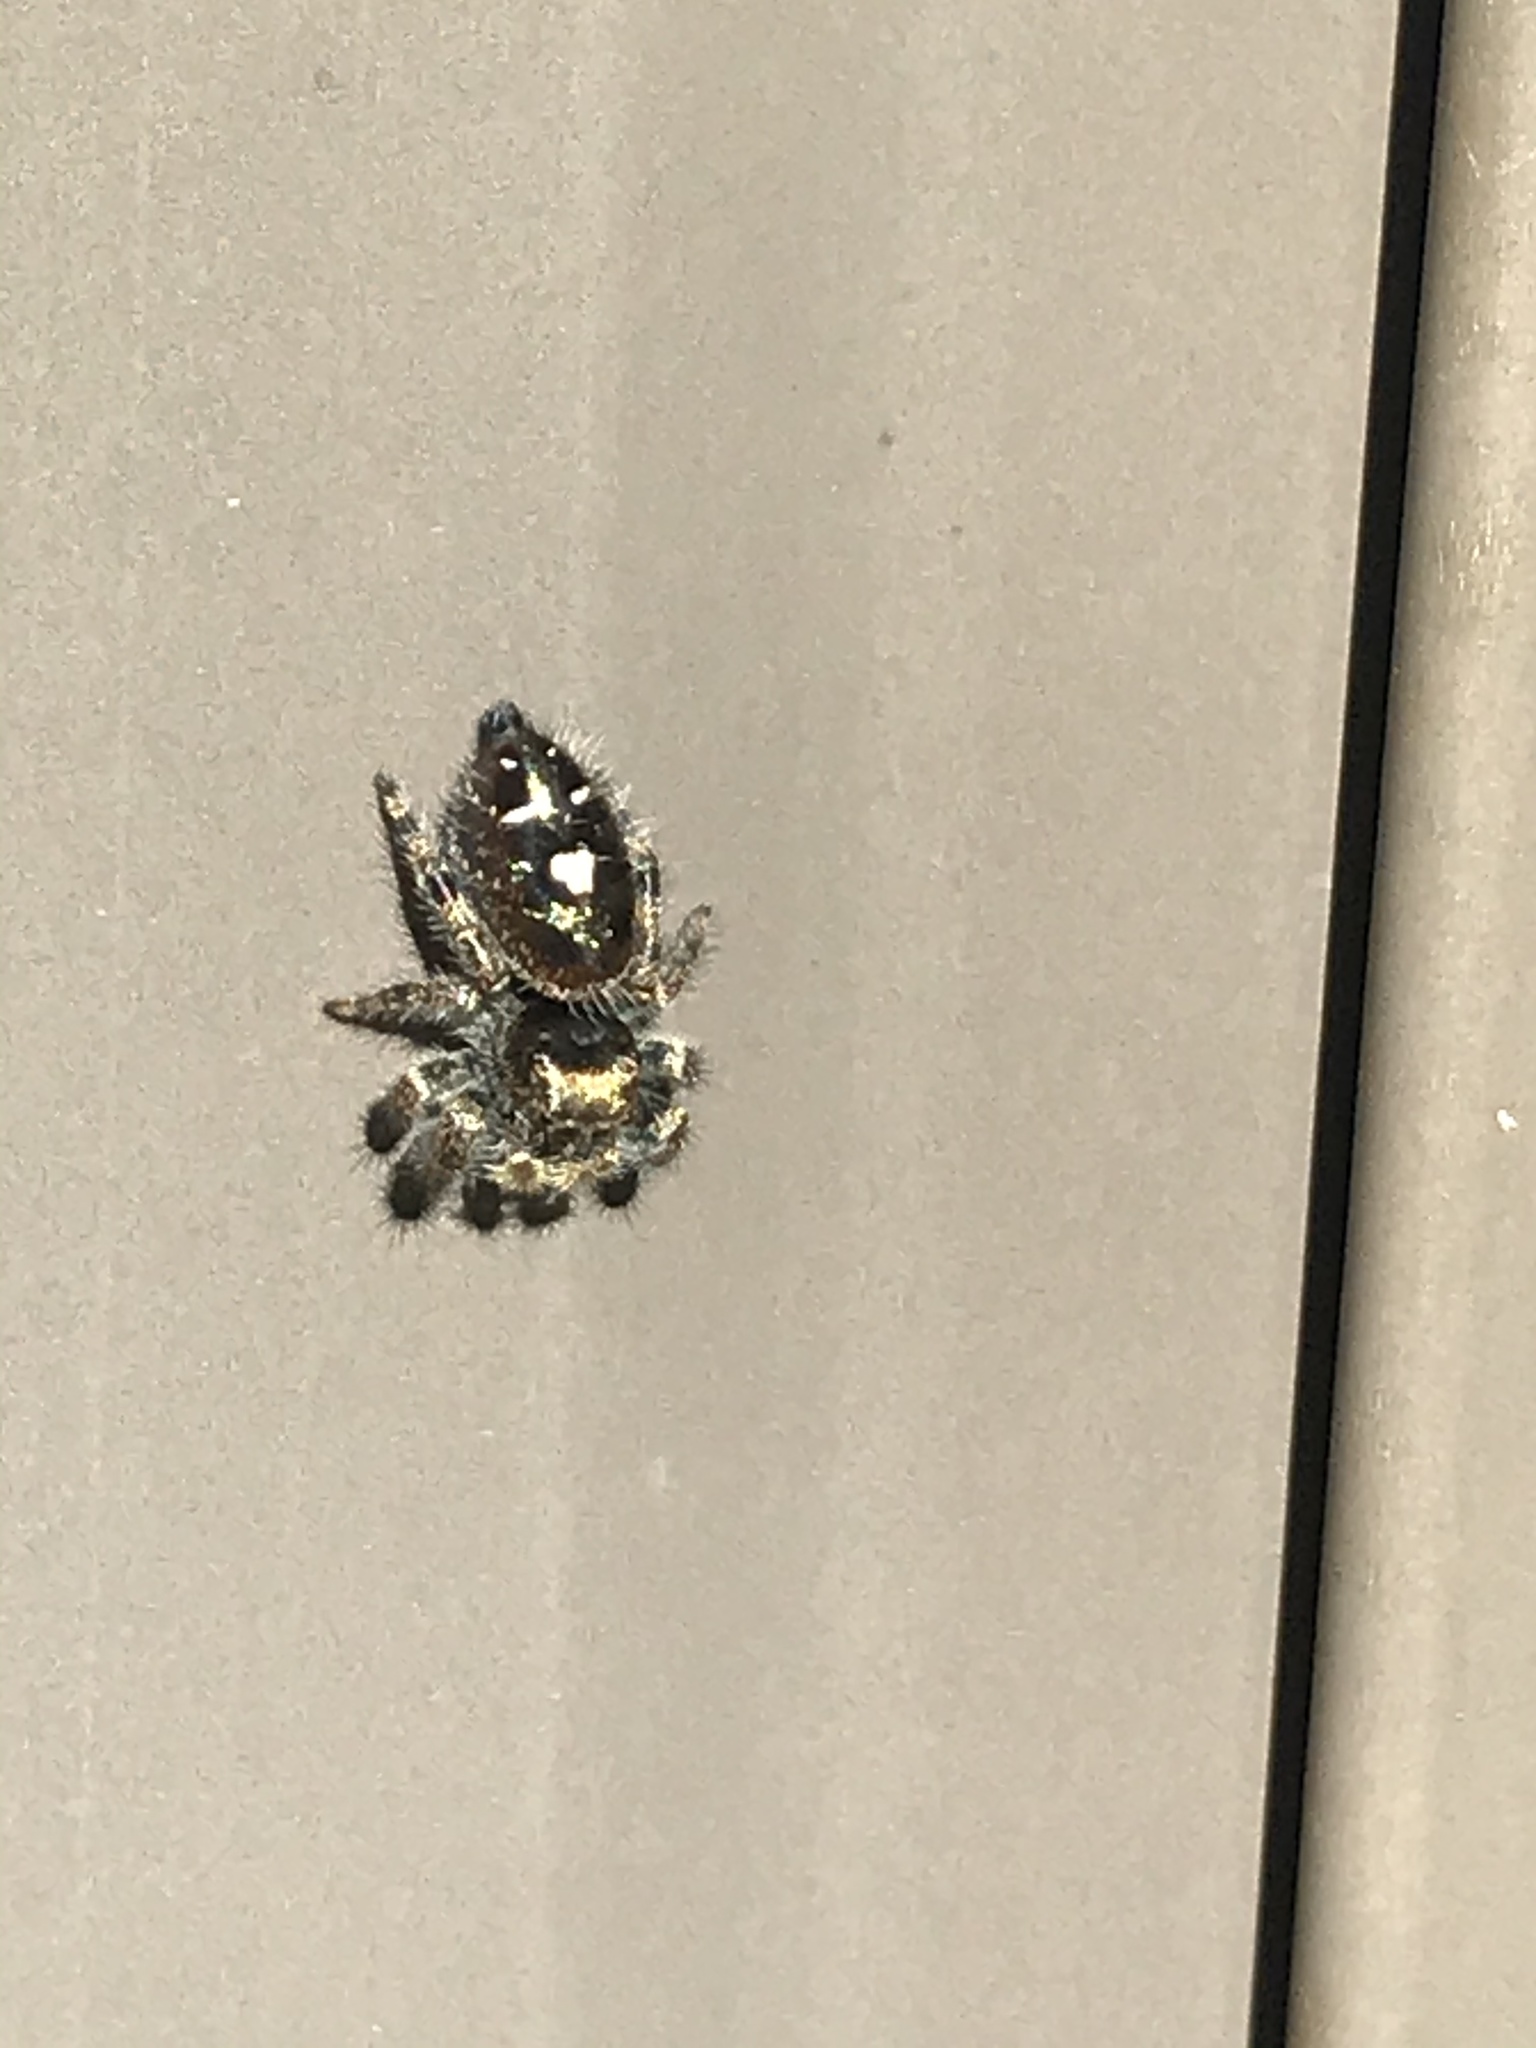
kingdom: Animalia
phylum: Arthropoda
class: Arachnida
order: Araneae
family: Salticidae
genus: Phidippus
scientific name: Phidippus audax
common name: Bold jumper
